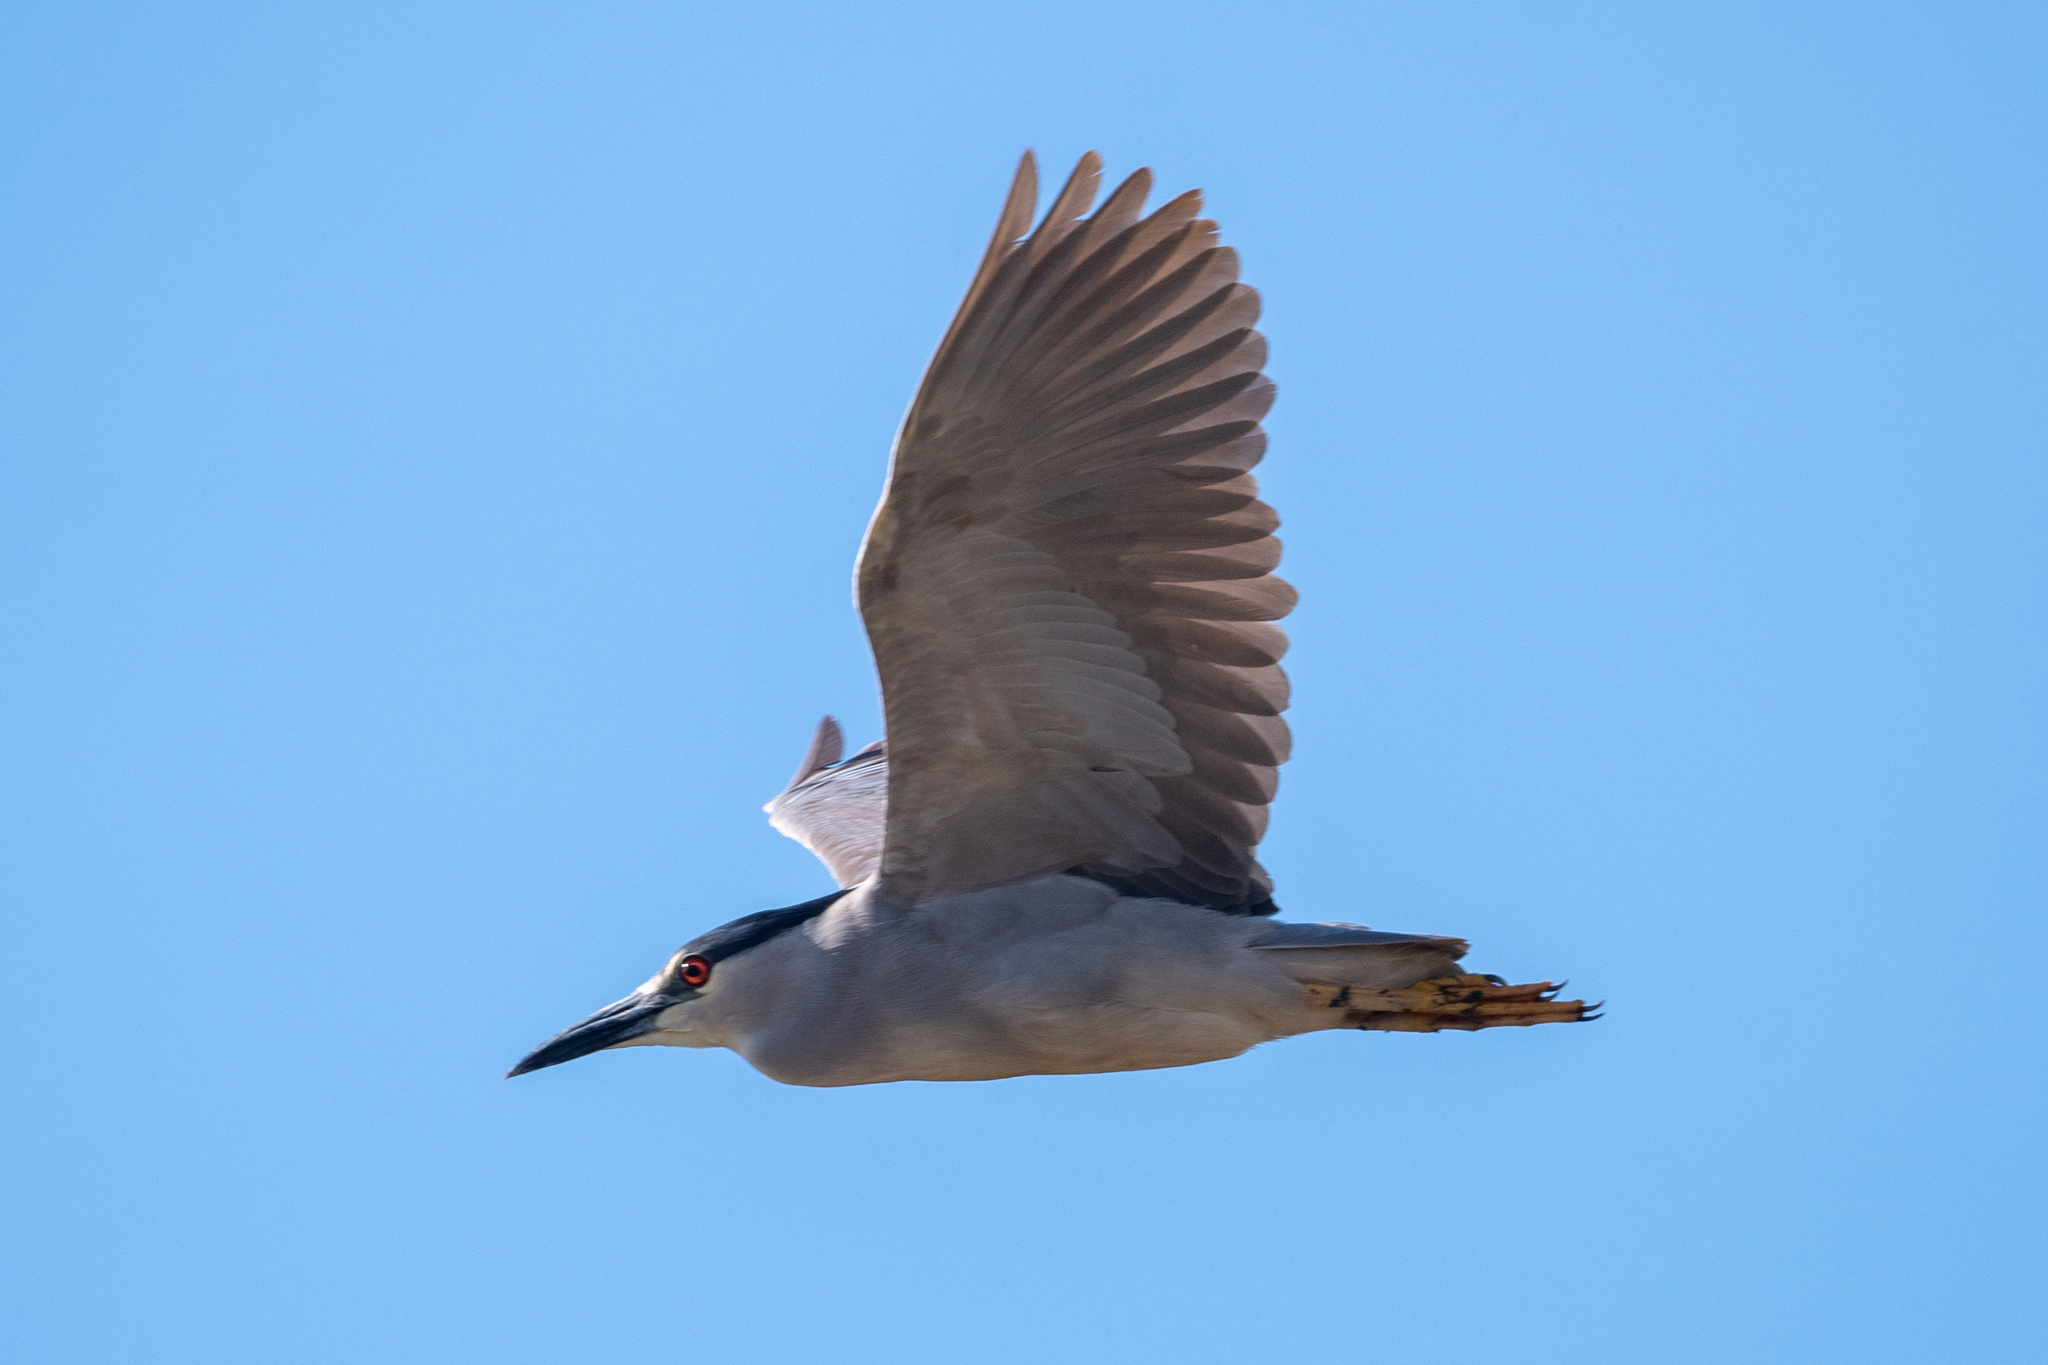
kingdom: Animalia
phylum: Chordata
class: Aves
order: Pelecaniformes
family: Ardeidae
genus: Nycticorax
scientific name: Nycticorax nycticorax
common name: Black-crowned night heron
